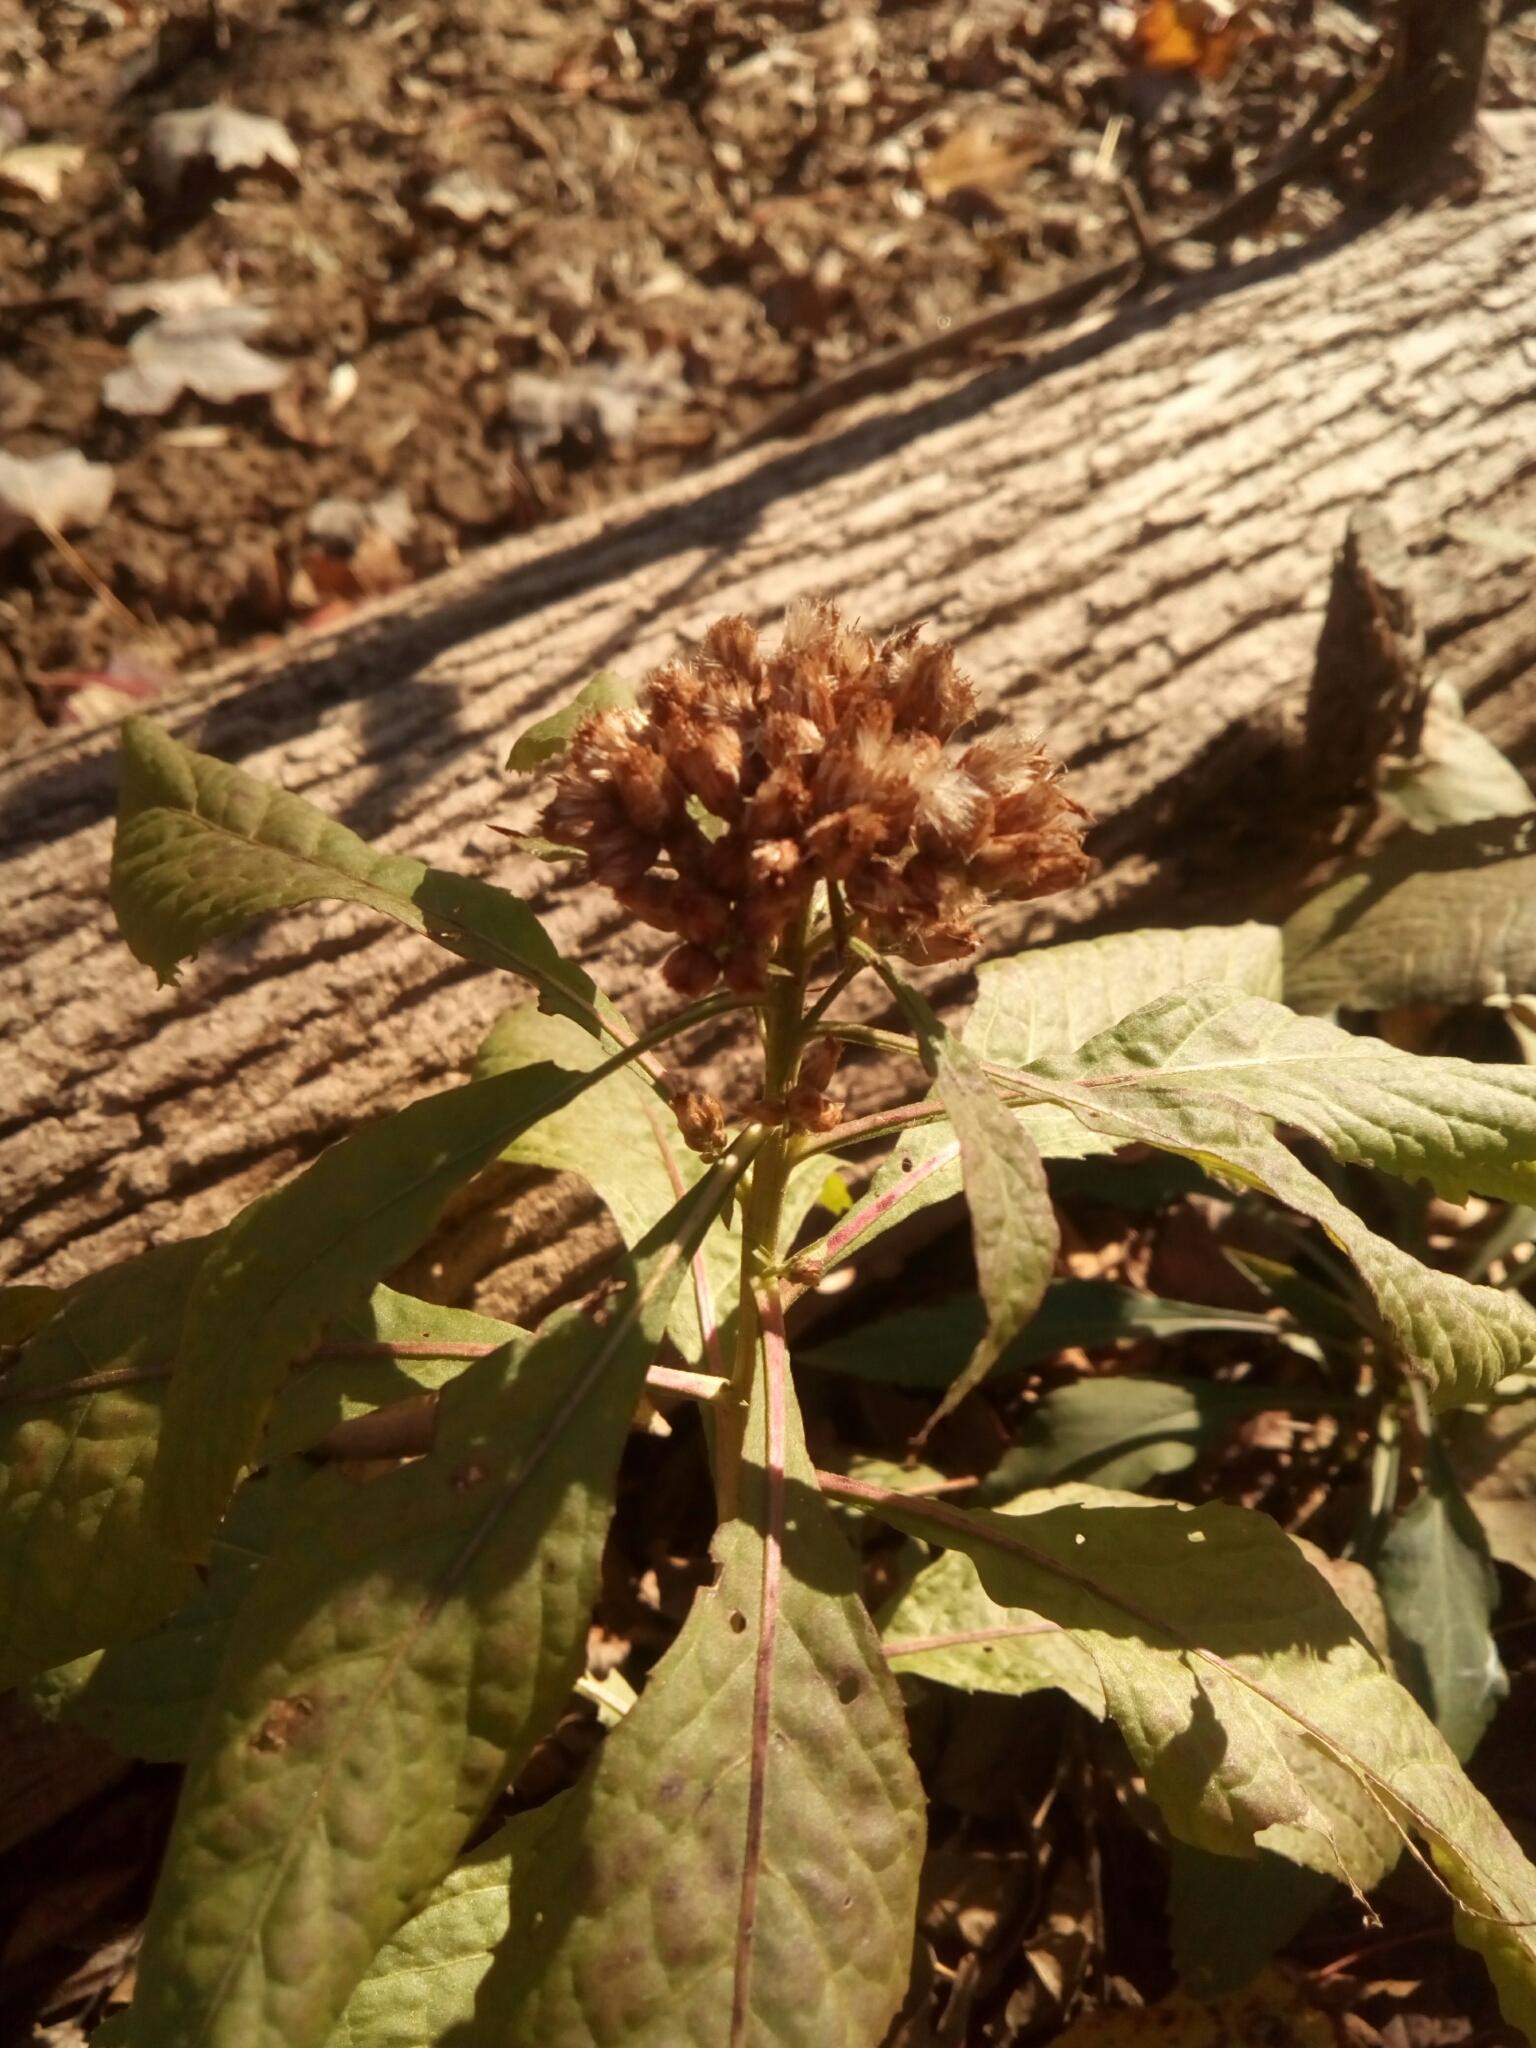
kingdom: Plantae
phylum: Tracheophyta
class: Magnoliopsida
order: Asterales
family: Asteraceae
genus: Pluchea
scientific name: Pluchea camphorata
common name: Camphor pluchea
